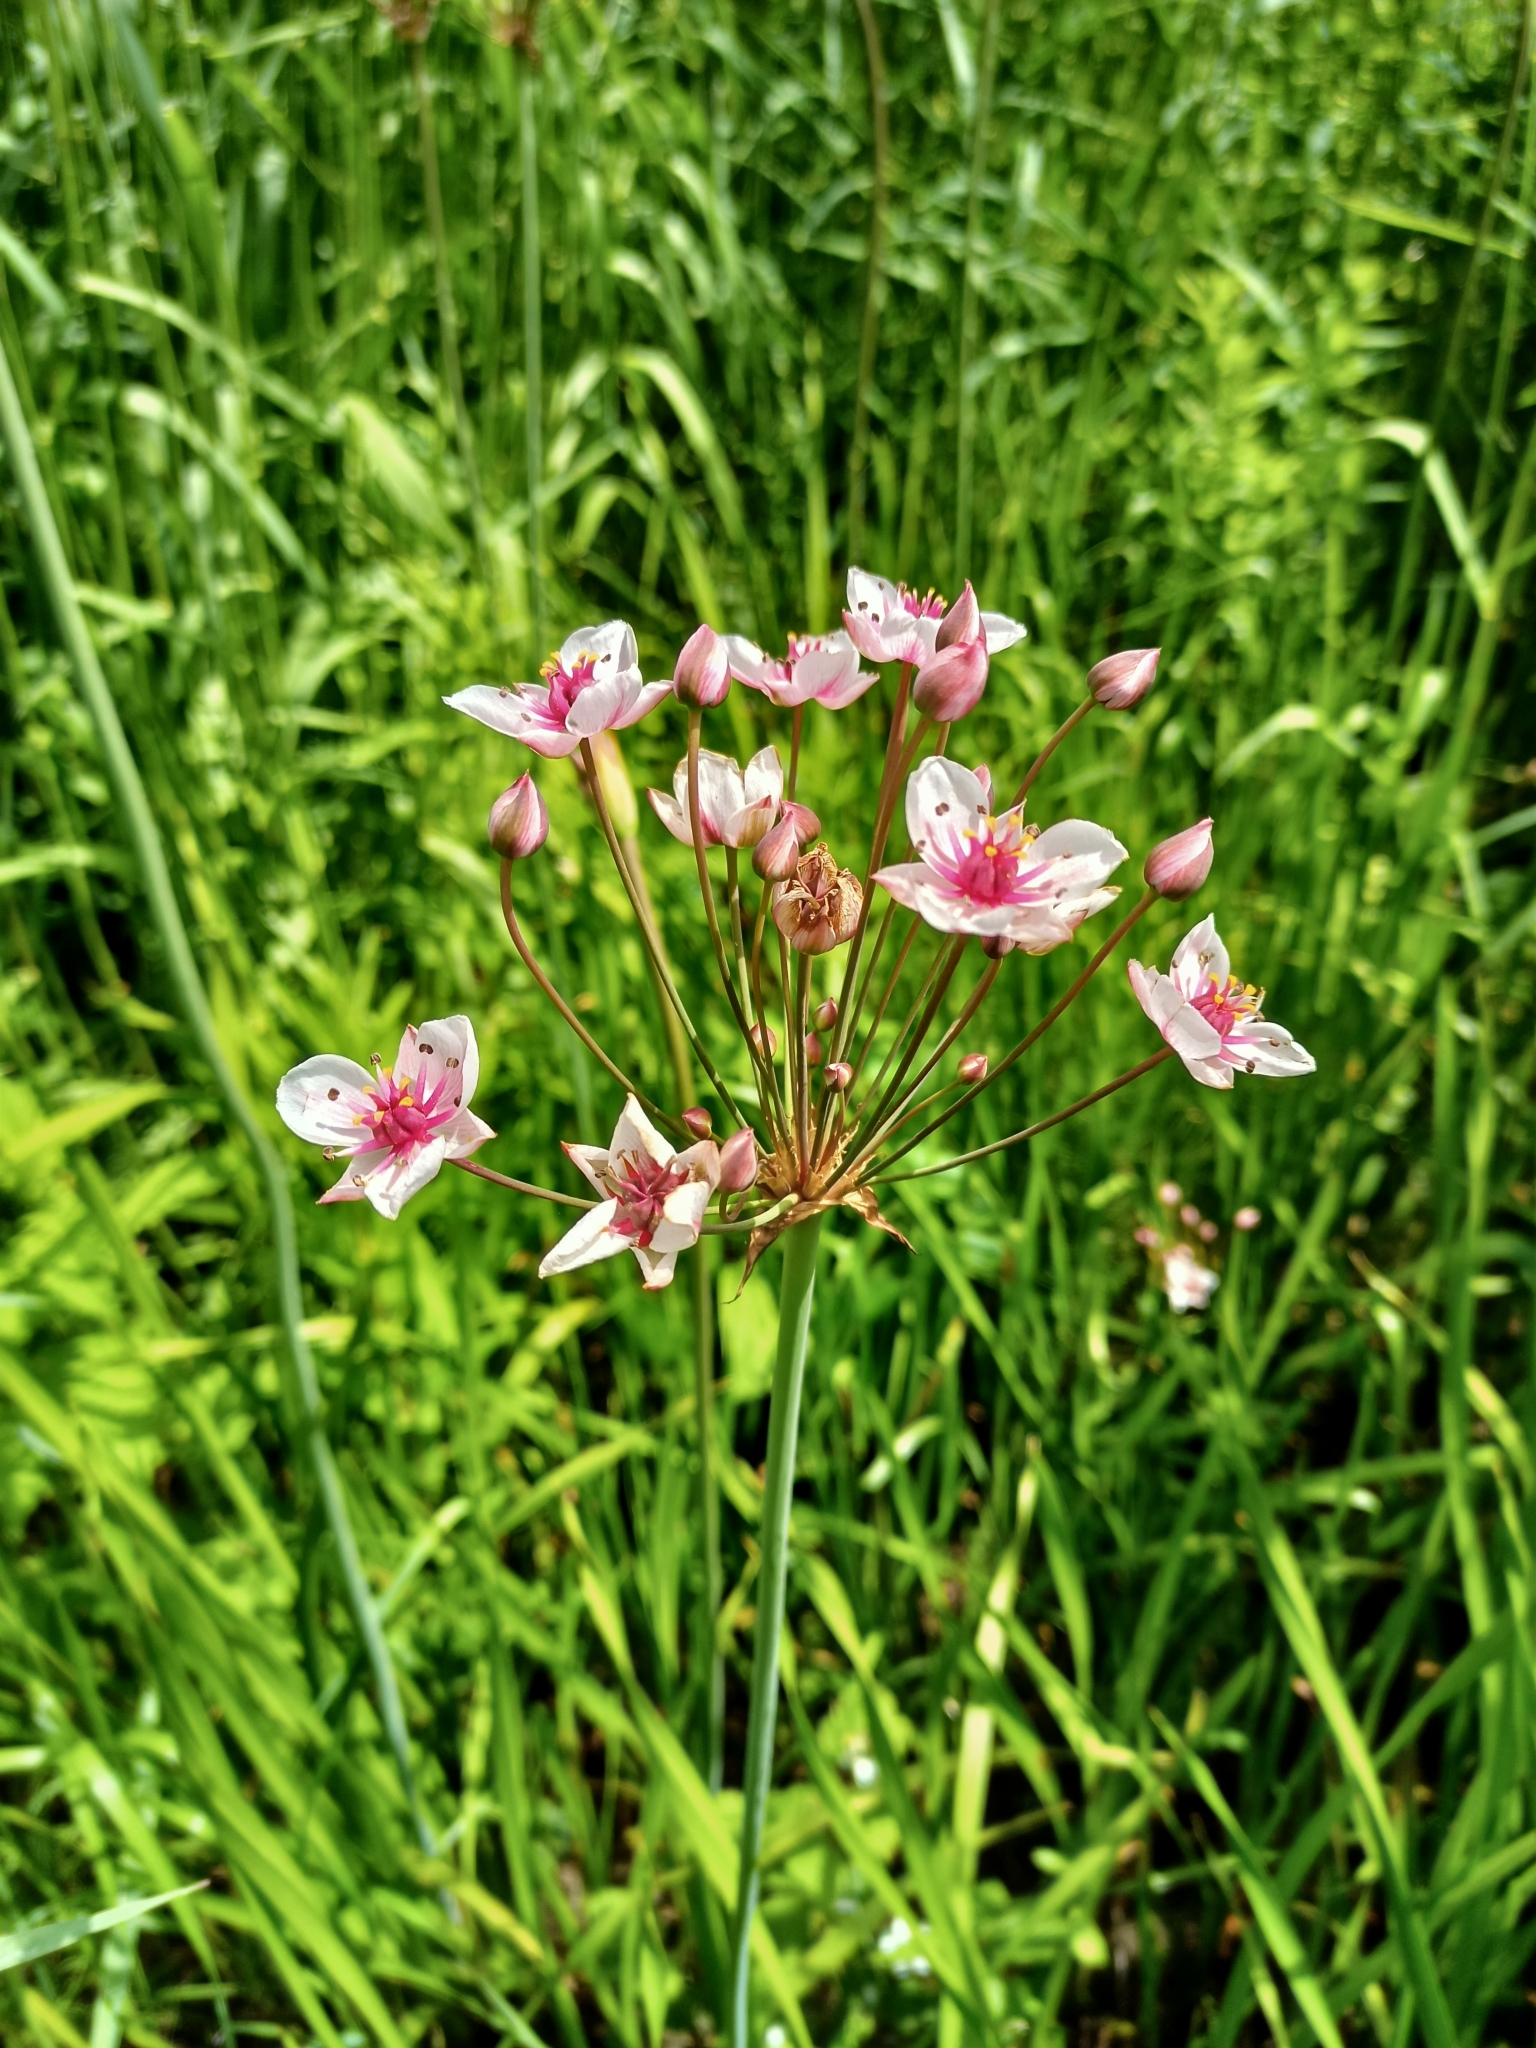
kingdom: Plantae
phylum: Tracheophyta
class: Liliopsida
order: Alismatales
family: Butomaceae
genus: Butomus
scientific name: Butomus umbellatus
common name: Flowering-rush
